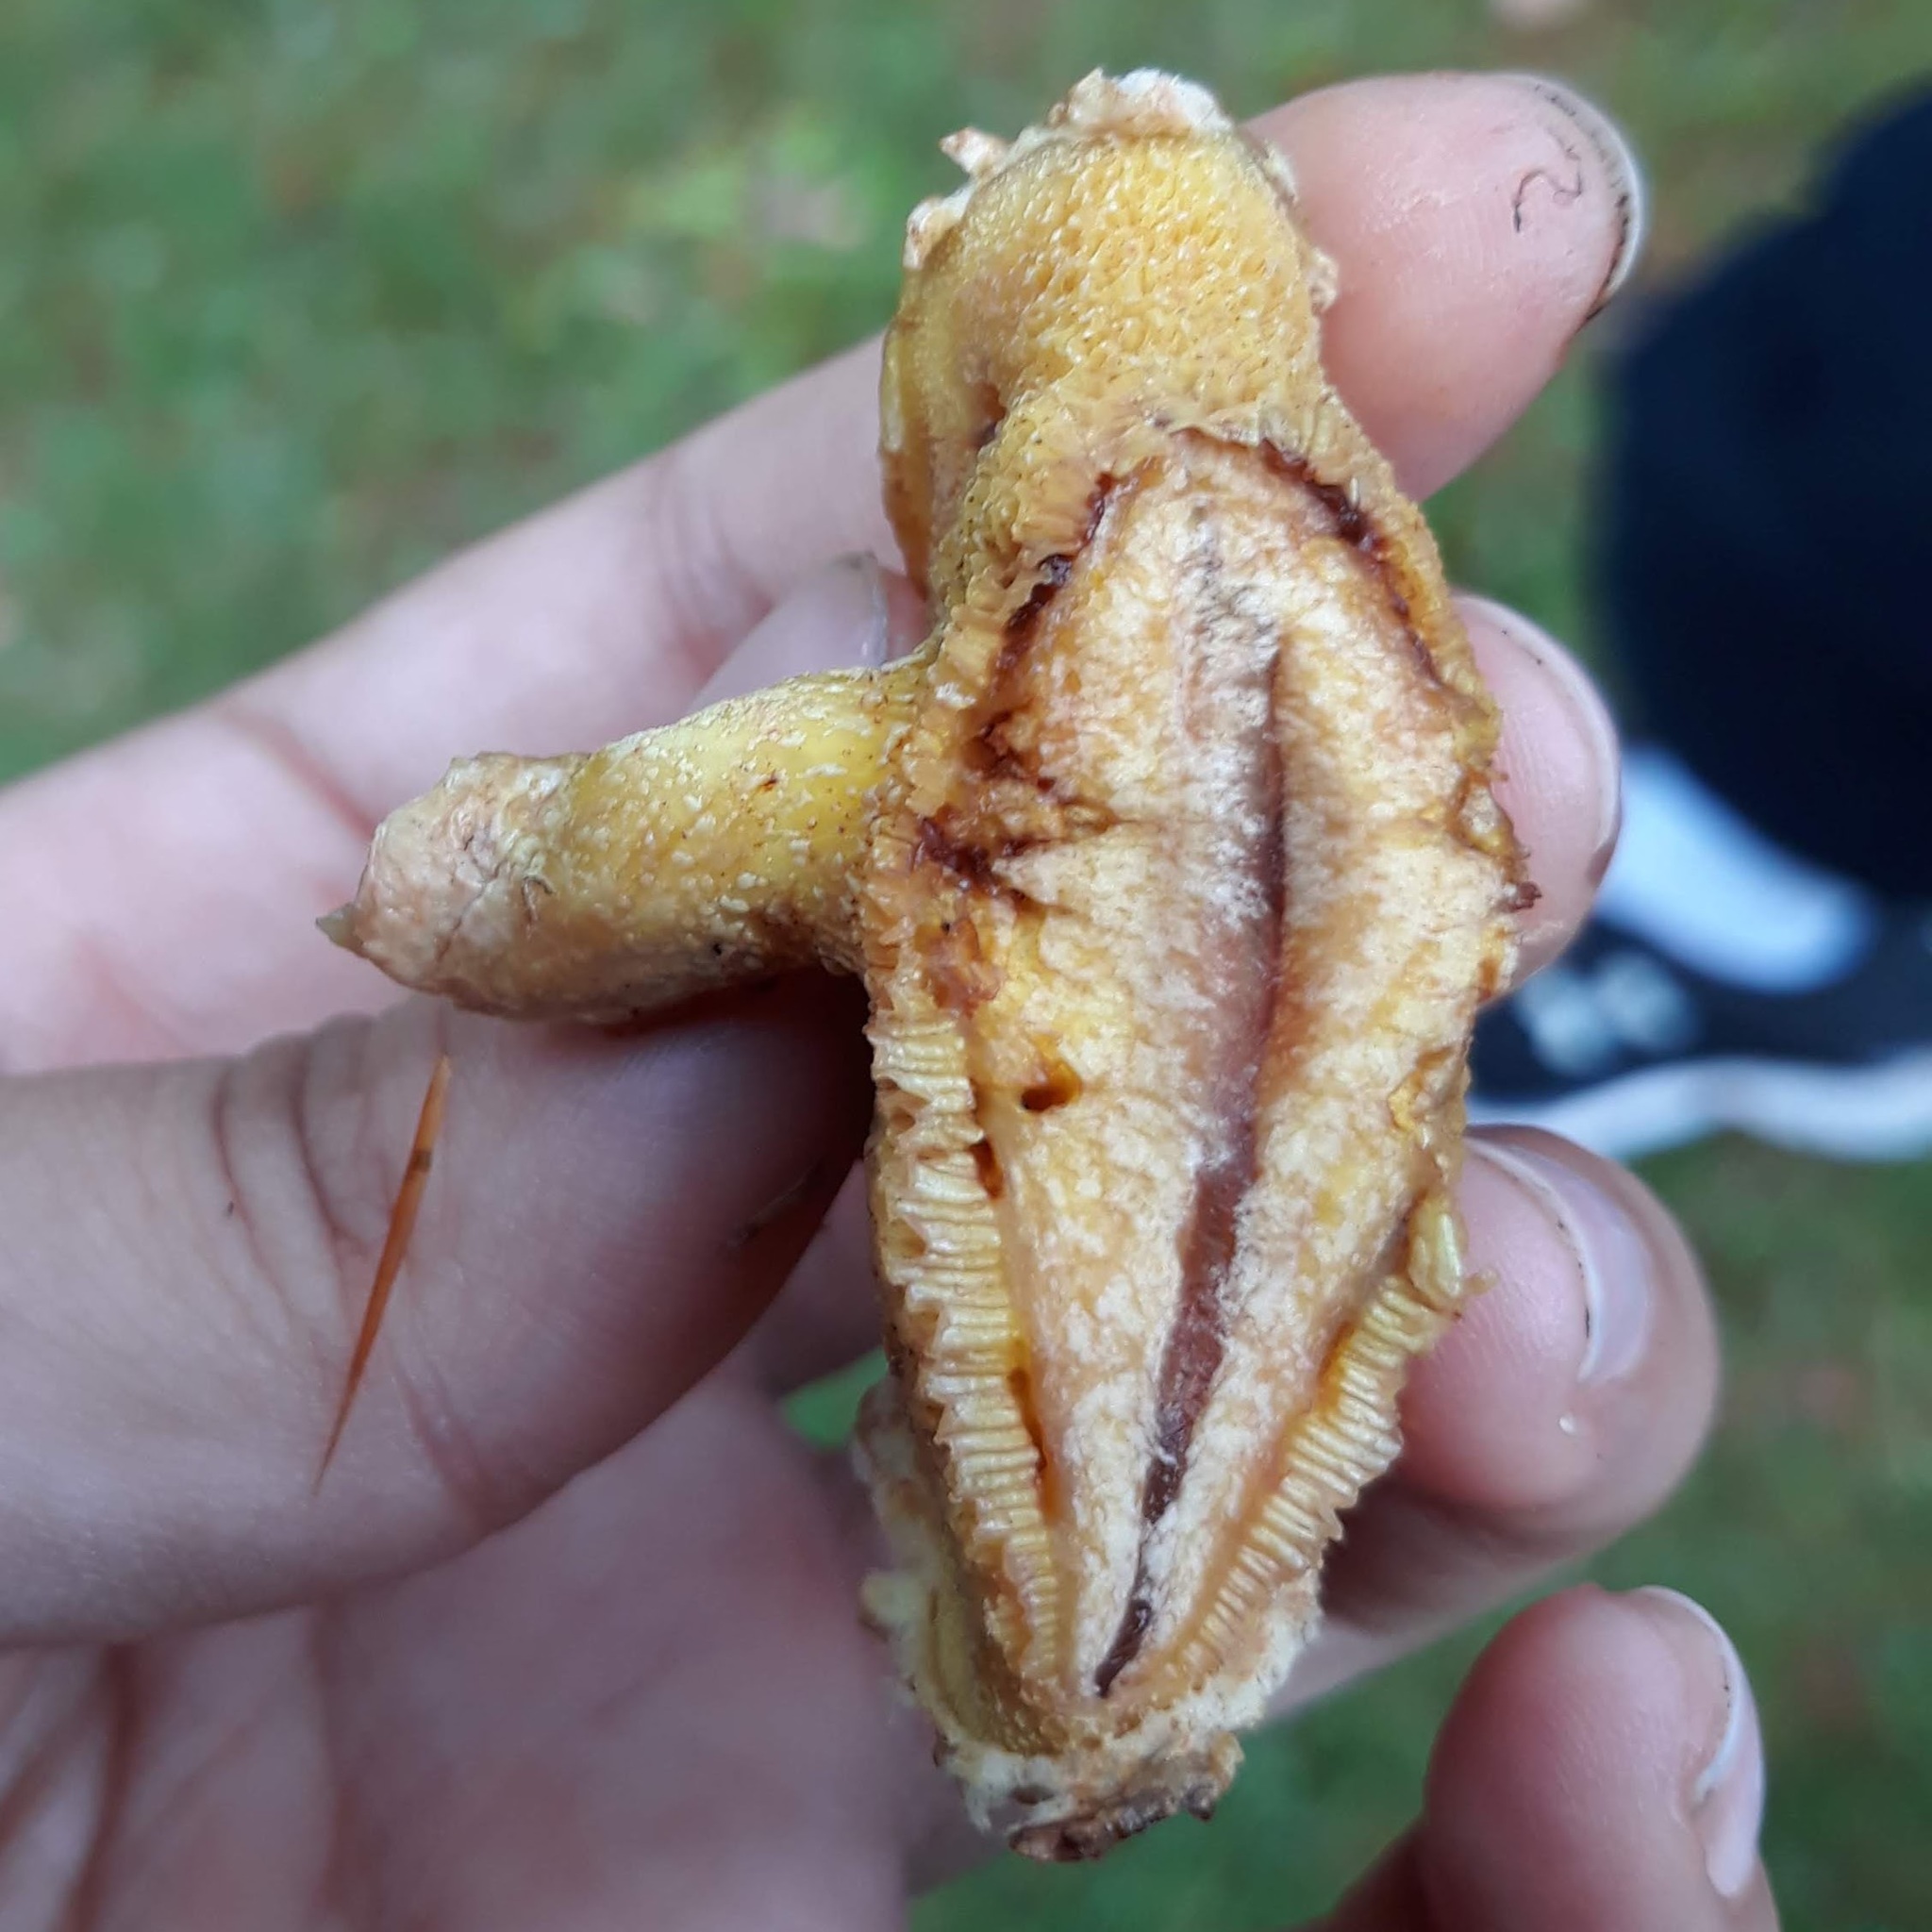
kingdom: Fungi
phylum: Basidiomycota
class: Agaricomycetes
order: Boletales
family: Suillaceae
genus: Suillus
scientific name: Suillus americanus
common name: Chicken fat mushroom
